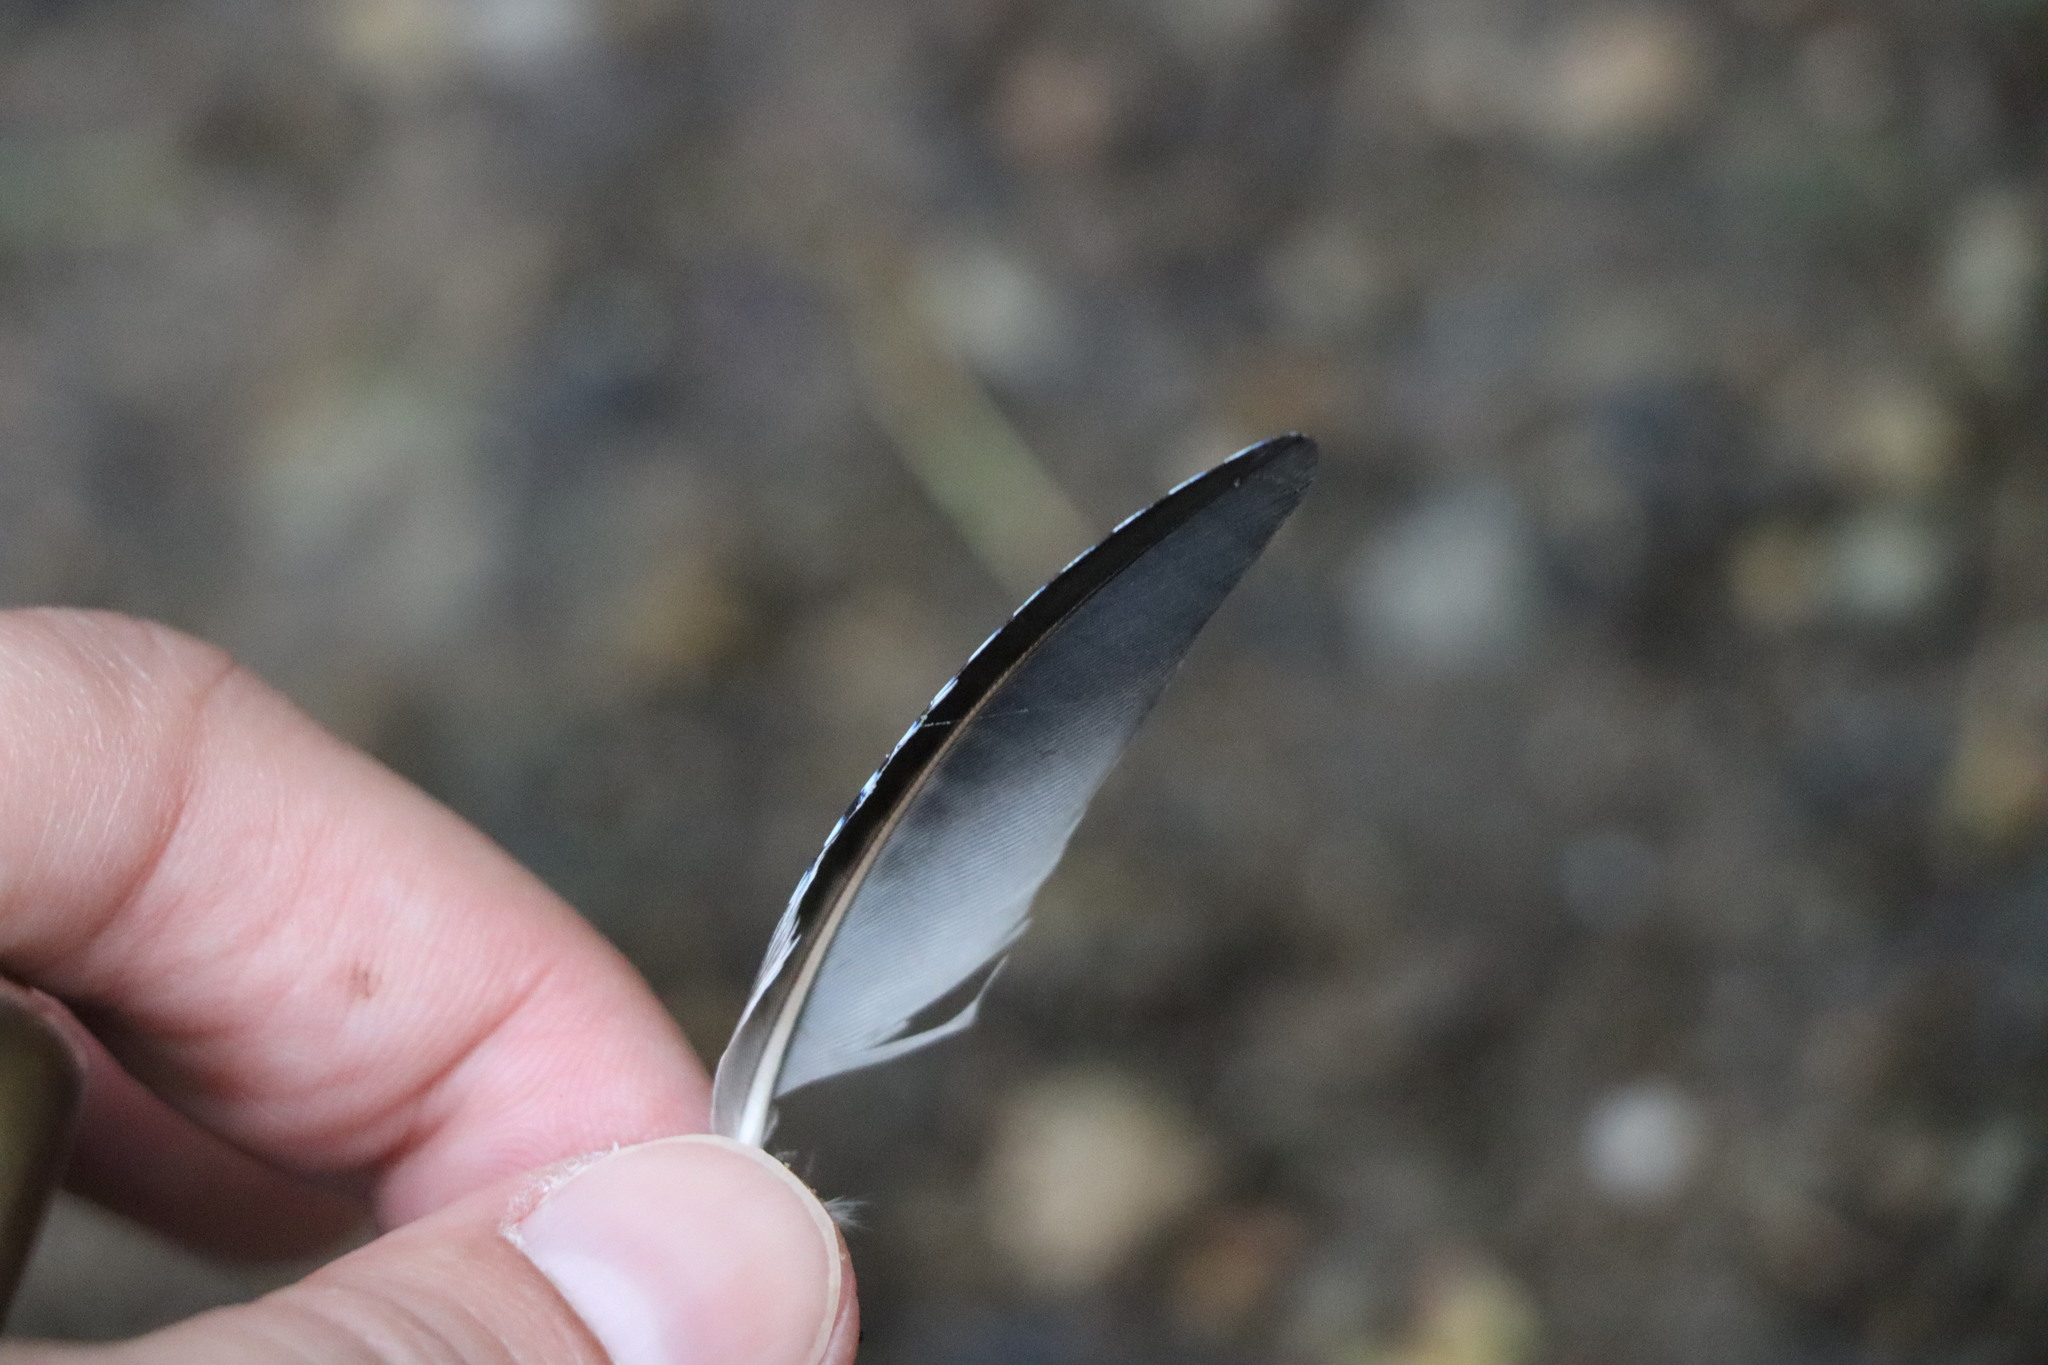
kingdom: Animalia
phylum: Chordata
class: Aves
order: Passeriformes
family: Corvidae
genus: Garrulus
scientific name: Garrulus glandarius
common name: Eurasian jay
